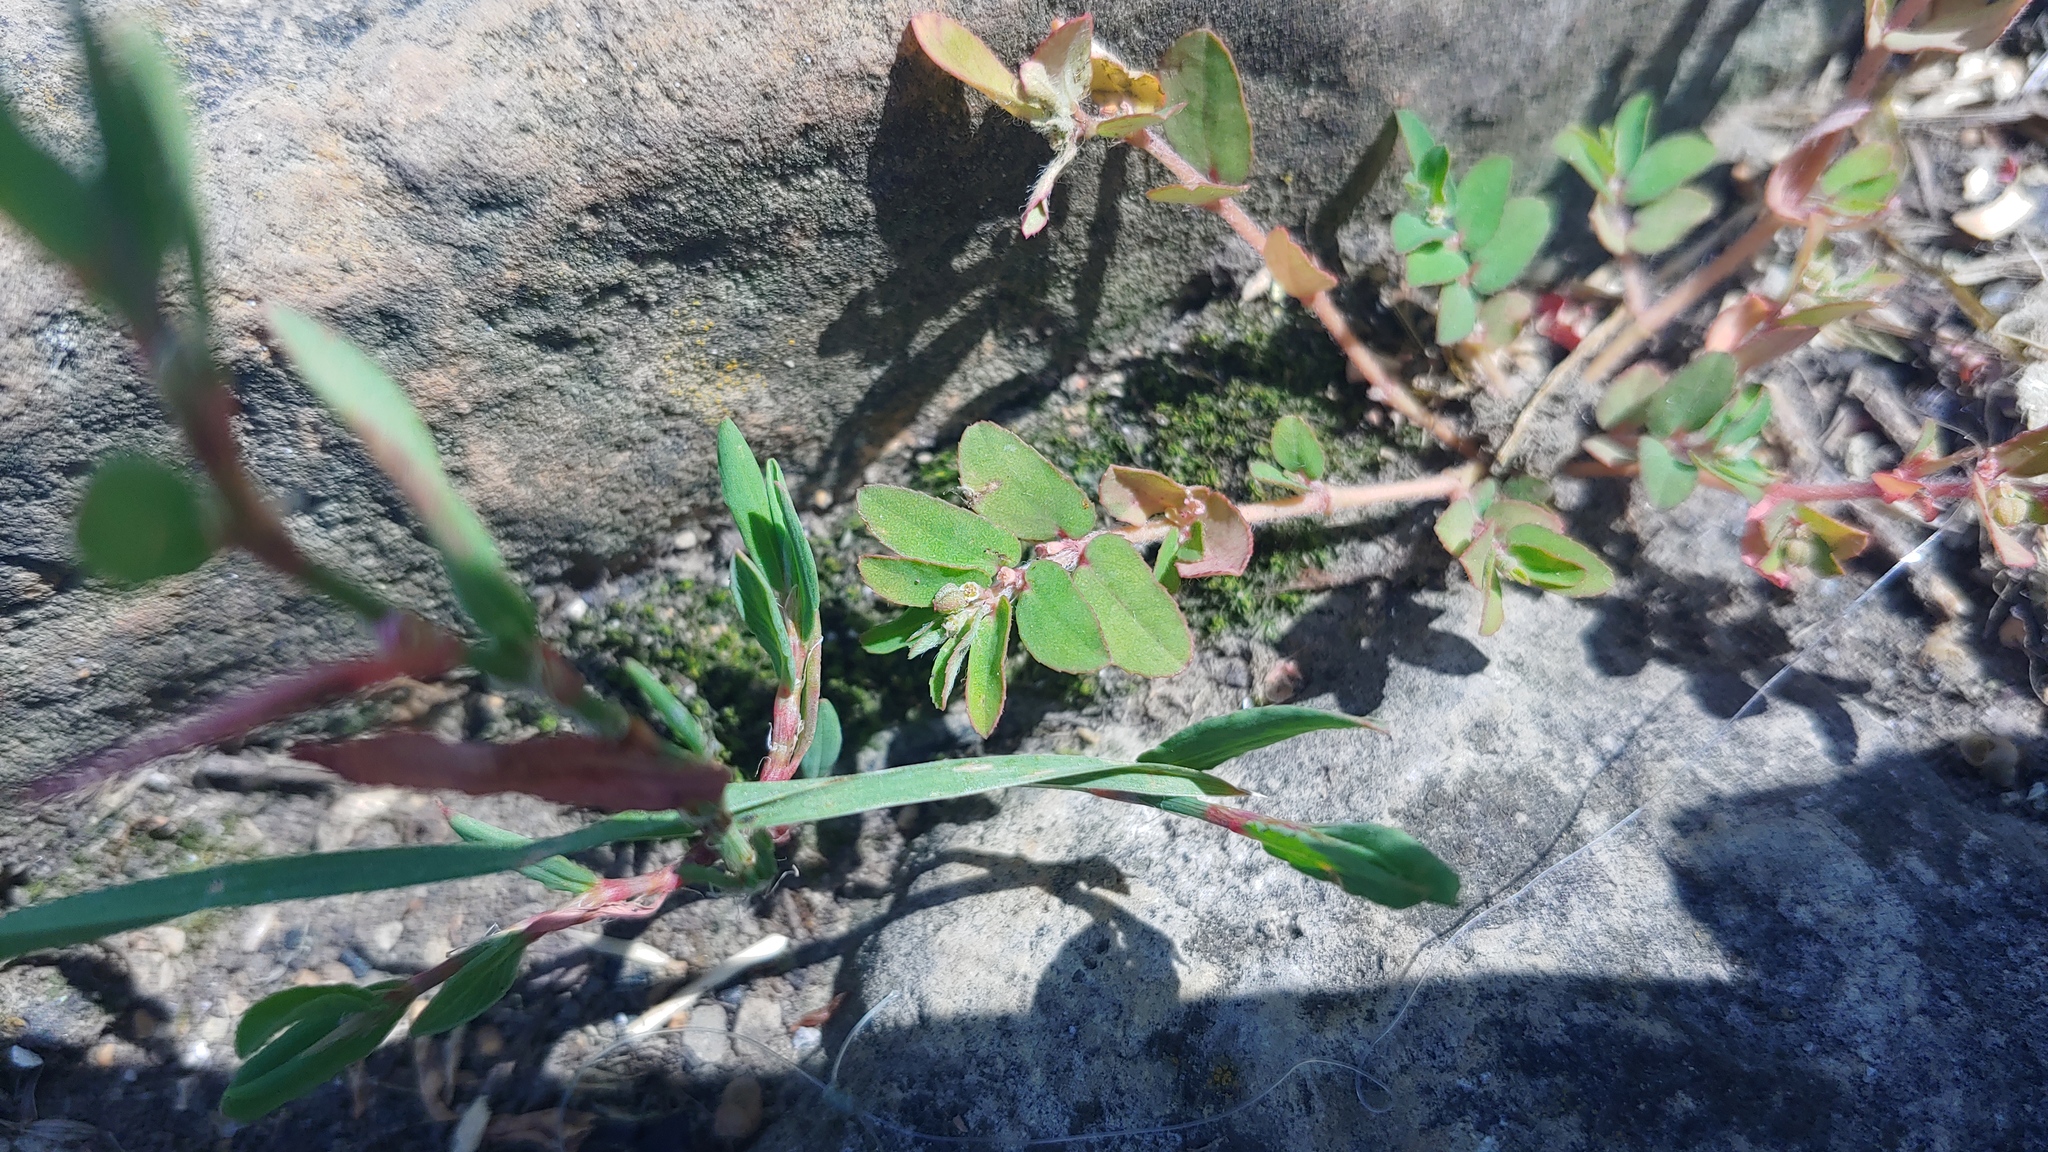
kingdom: Plantae
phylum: Tracheophyta
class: Magnoliopsida
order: Malpighiales
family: Euphorbiaceae
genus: Euphorbia
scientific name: Euphorbia maculata
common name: Spotted spurge
